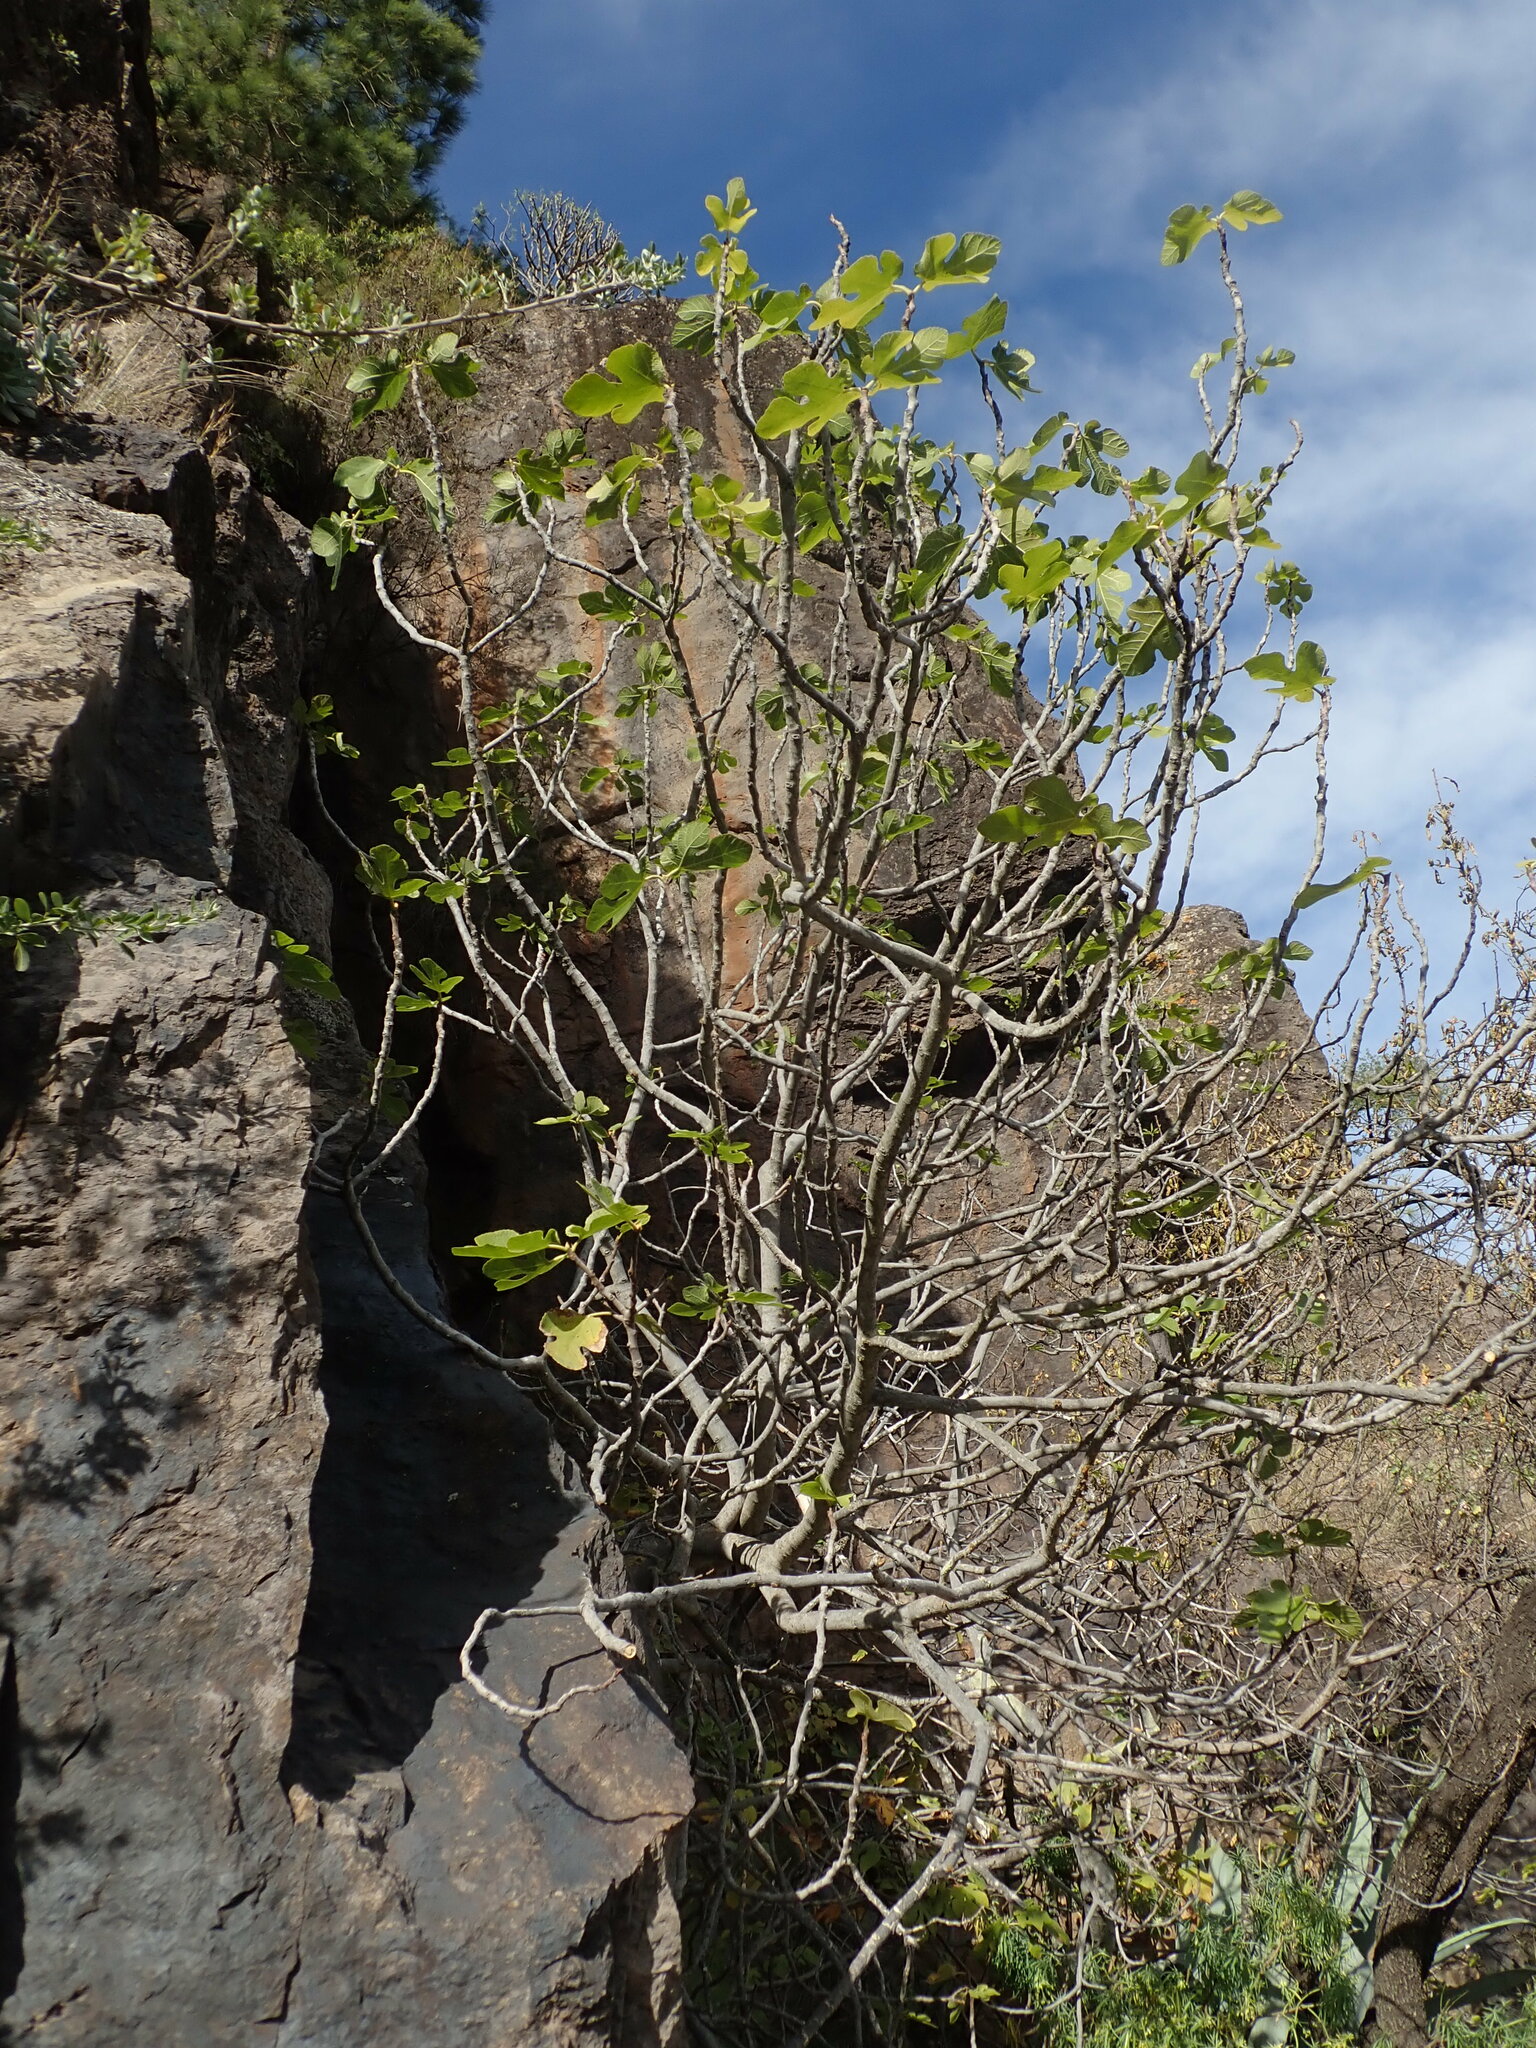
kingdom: Plantae
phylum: Tracheophyta
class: Magnoliopsida
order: Rosales
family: Moraceae
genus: Ficus
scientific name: Ficus carica
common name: Fig
